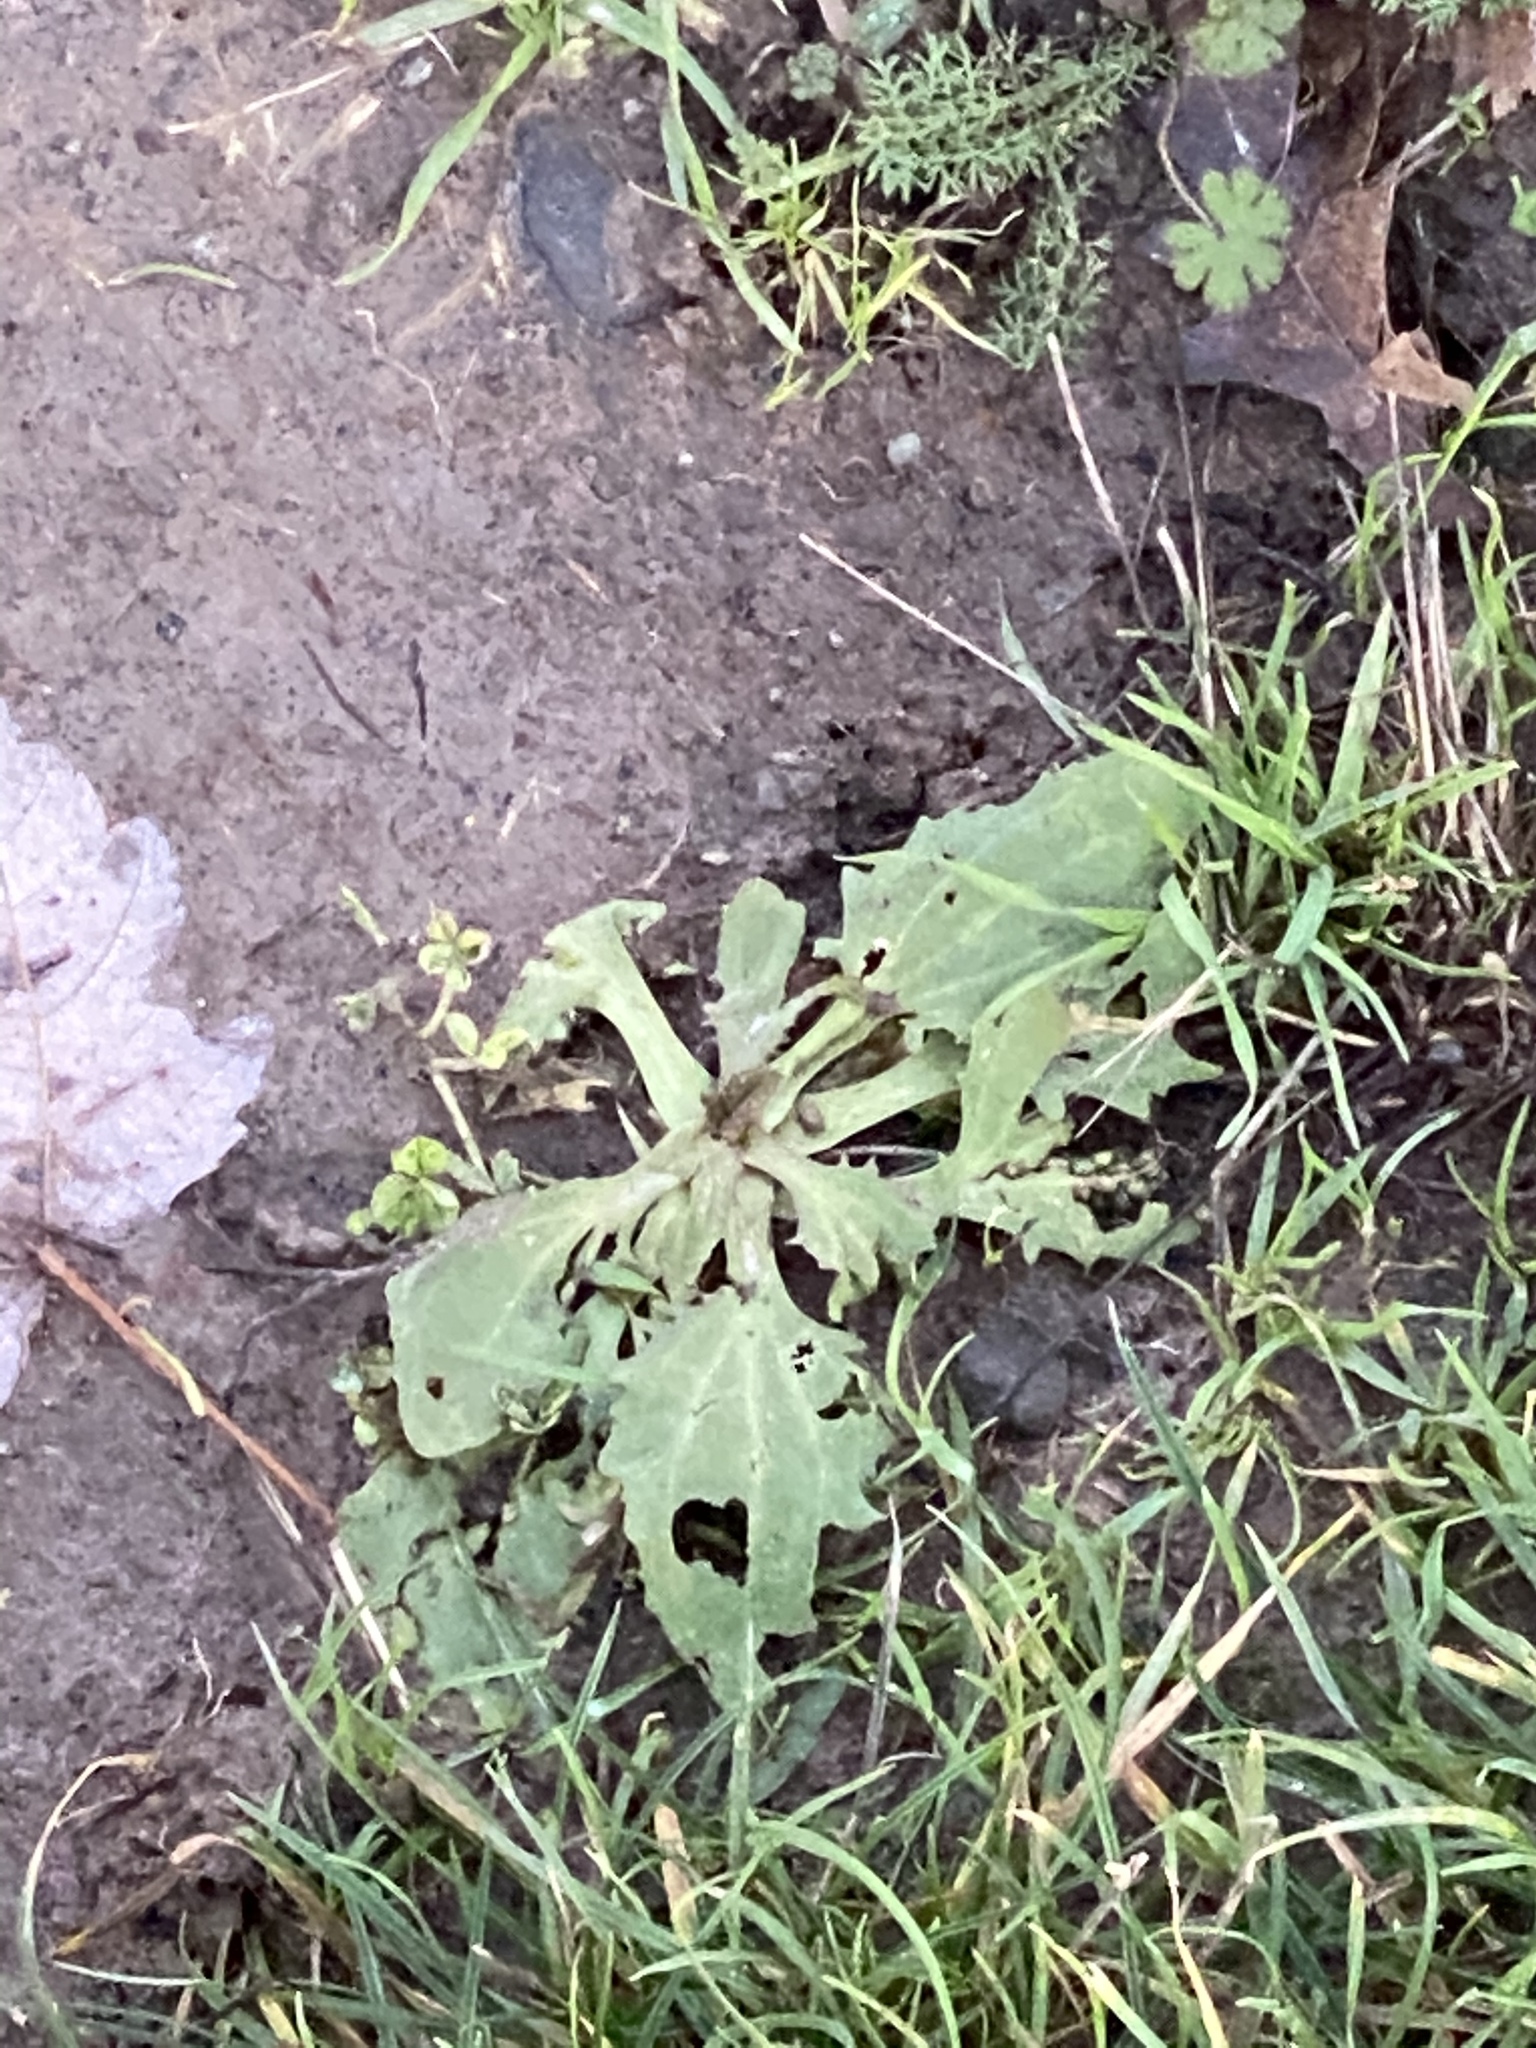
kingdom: Plantae
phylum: Tracheophyta
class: Magnoliopsida
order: Lamiales
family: Plantaginaceae
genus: Plantago
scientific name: Plantago major
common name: Common plantain
